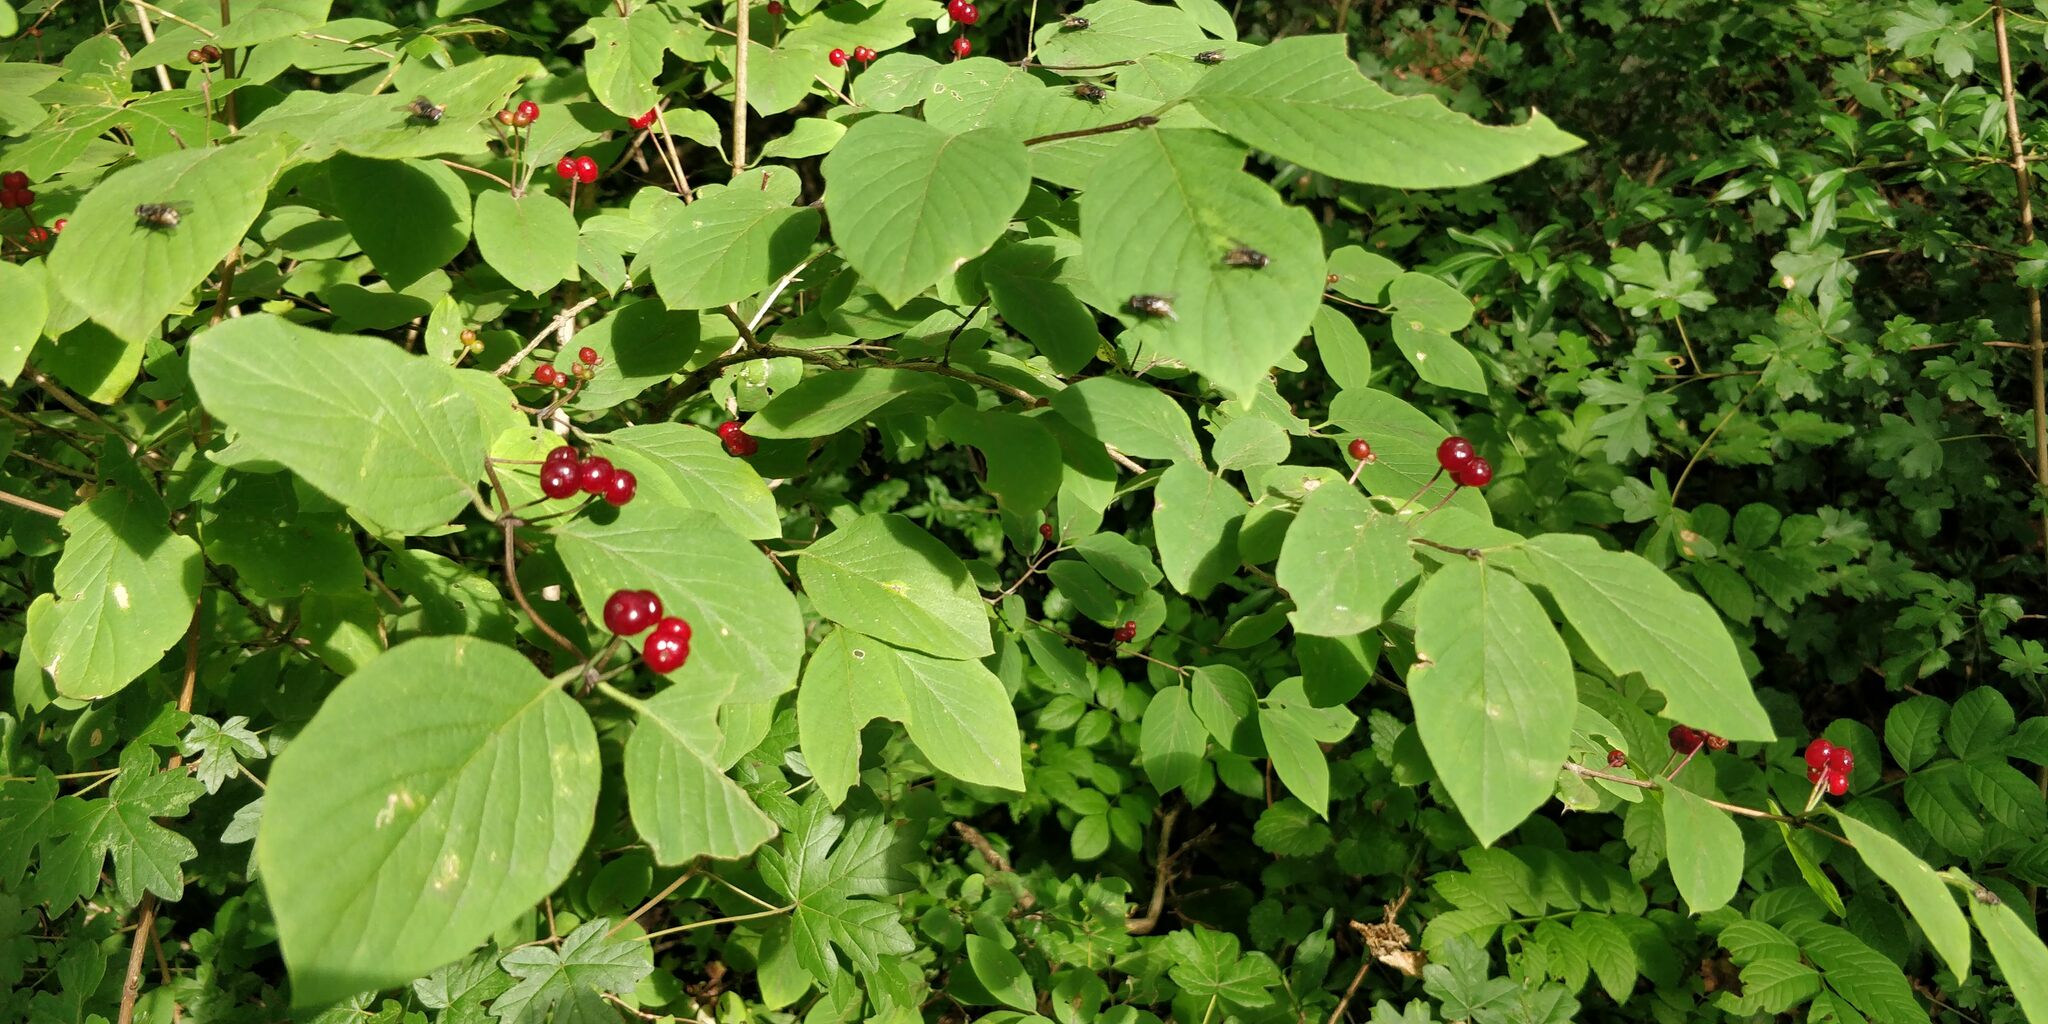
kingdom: Plantae
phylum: Tracheophyta
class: Magnoliopsida
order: Dipsacales
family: Caprifoliaceae
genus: Lonicera
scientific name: Lonicera xylosteum
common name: Fly honeysuckle
